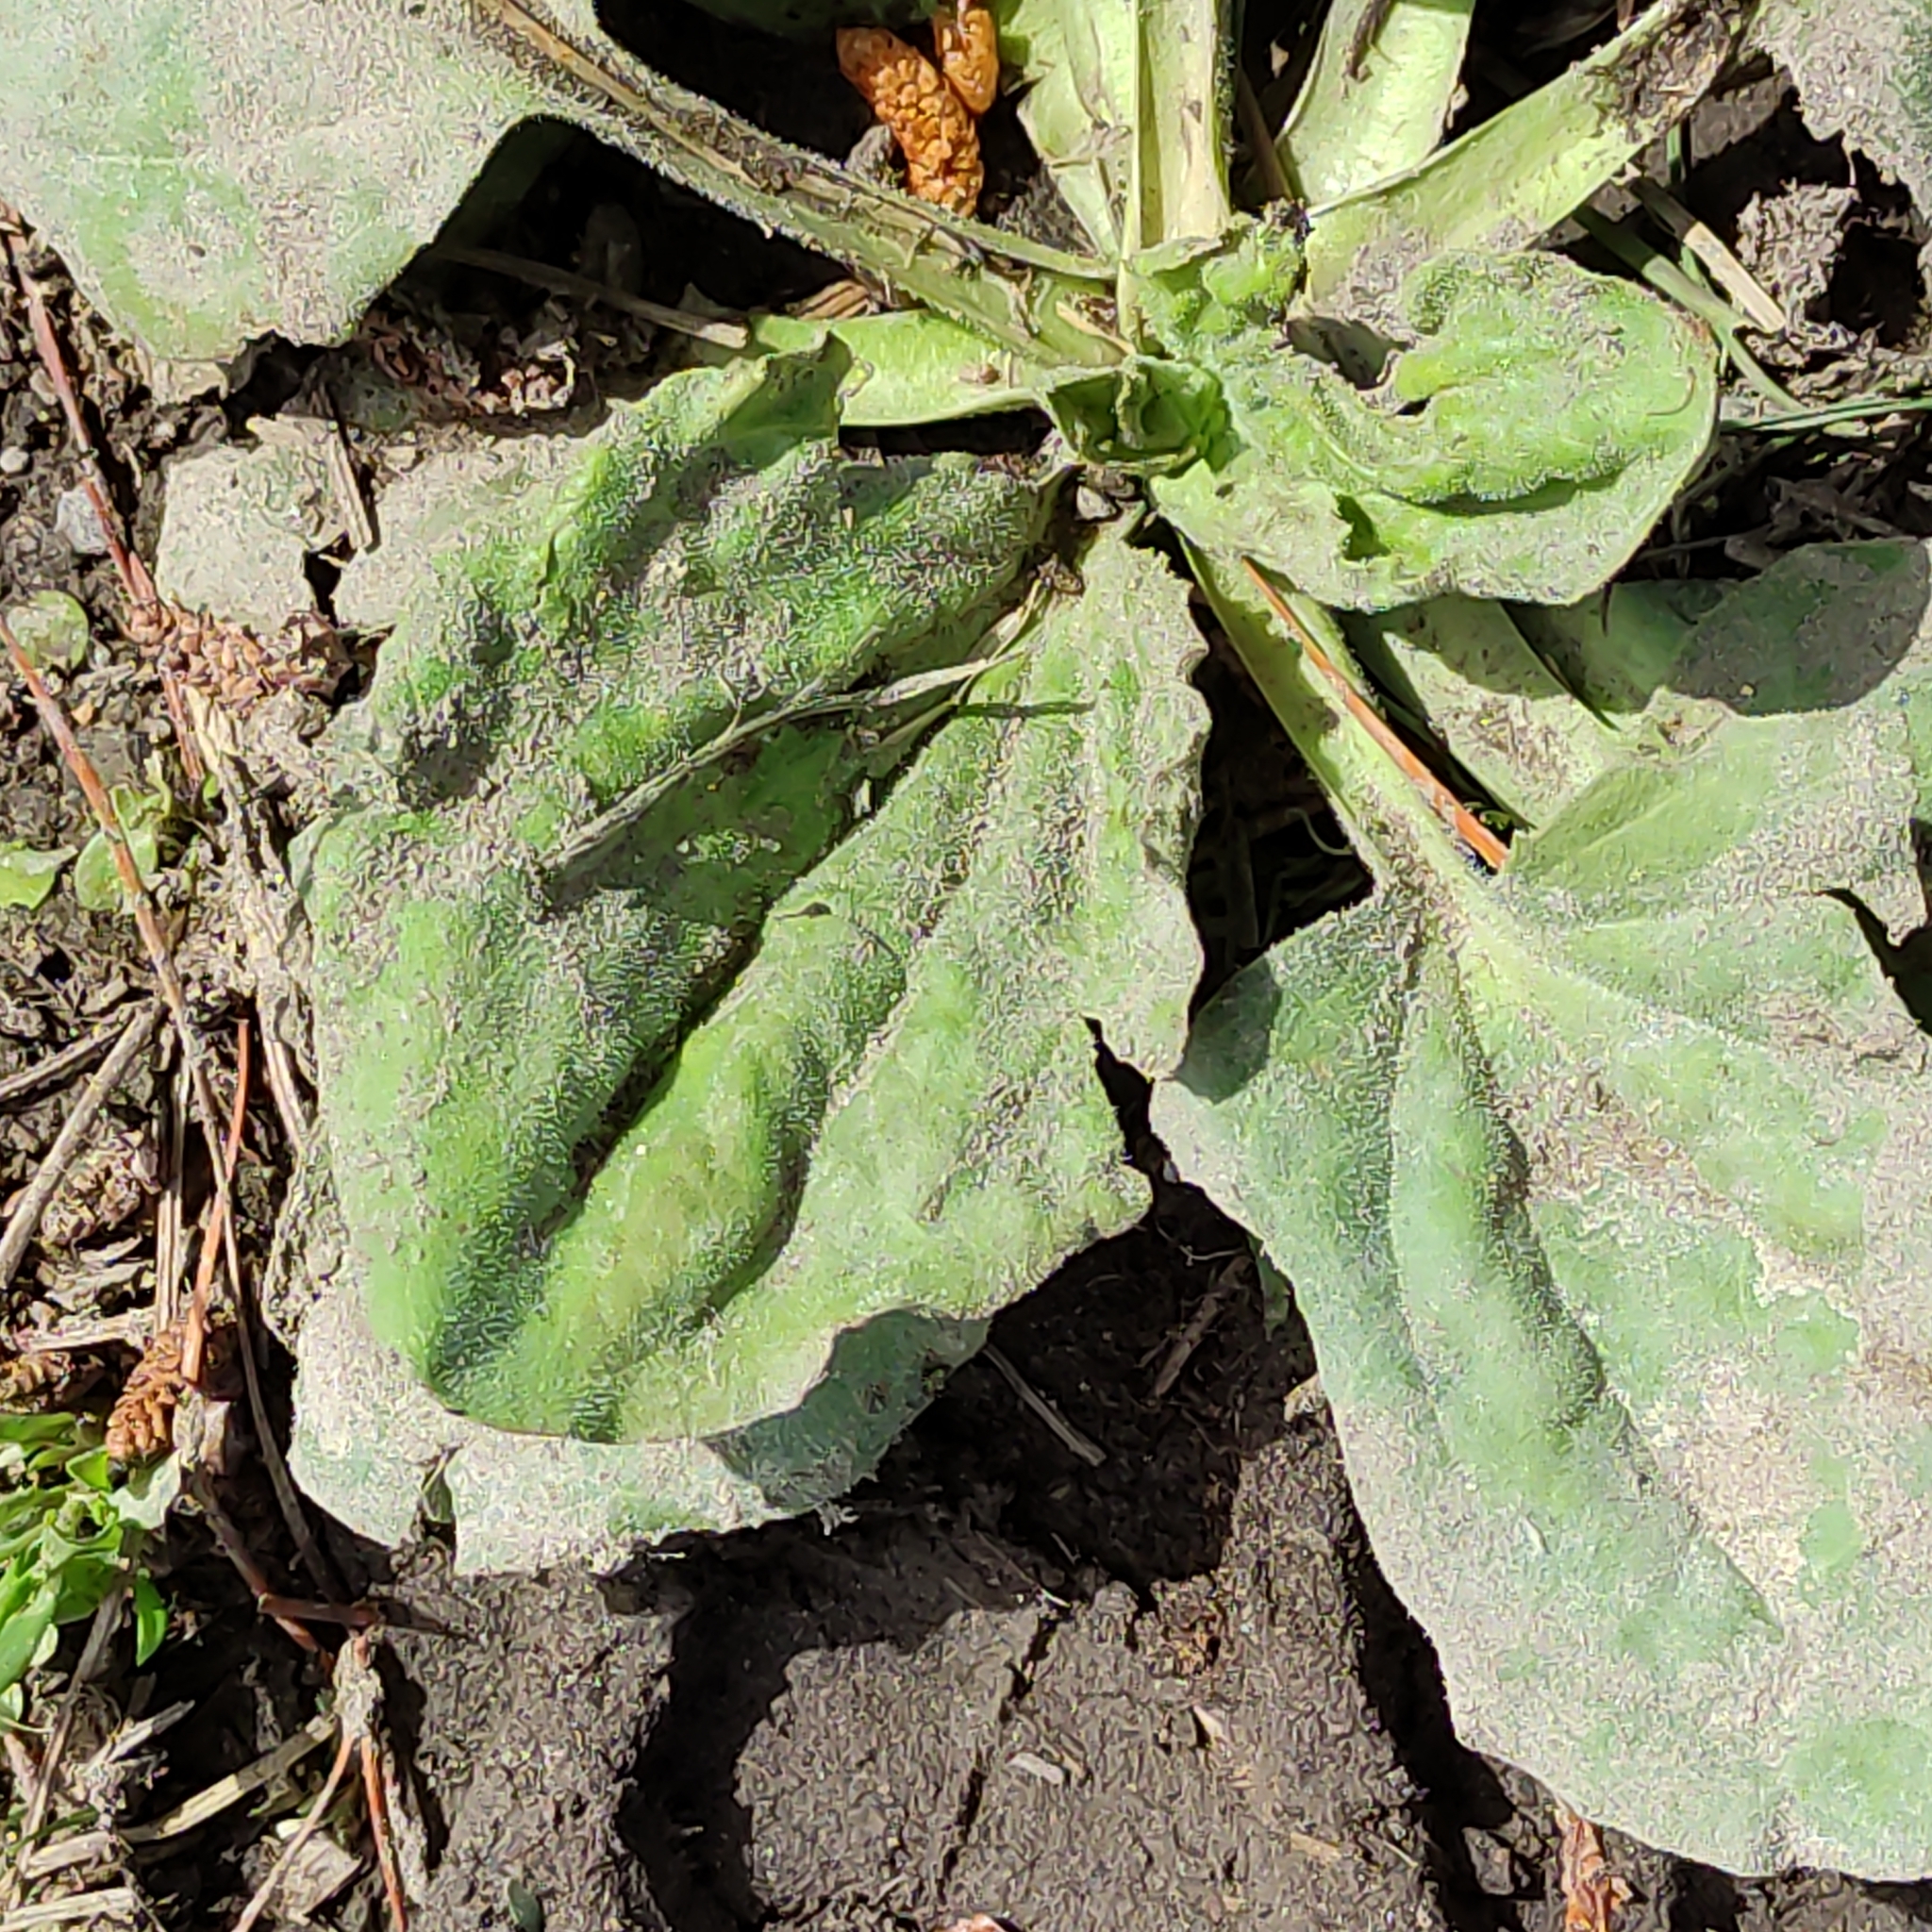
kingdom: Plantae
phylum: Tracheophyta
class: Magnoliopsida
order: Lamiales
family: Plantaginaceae
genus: Plantago
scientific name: Plantago major
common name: Common plantain
